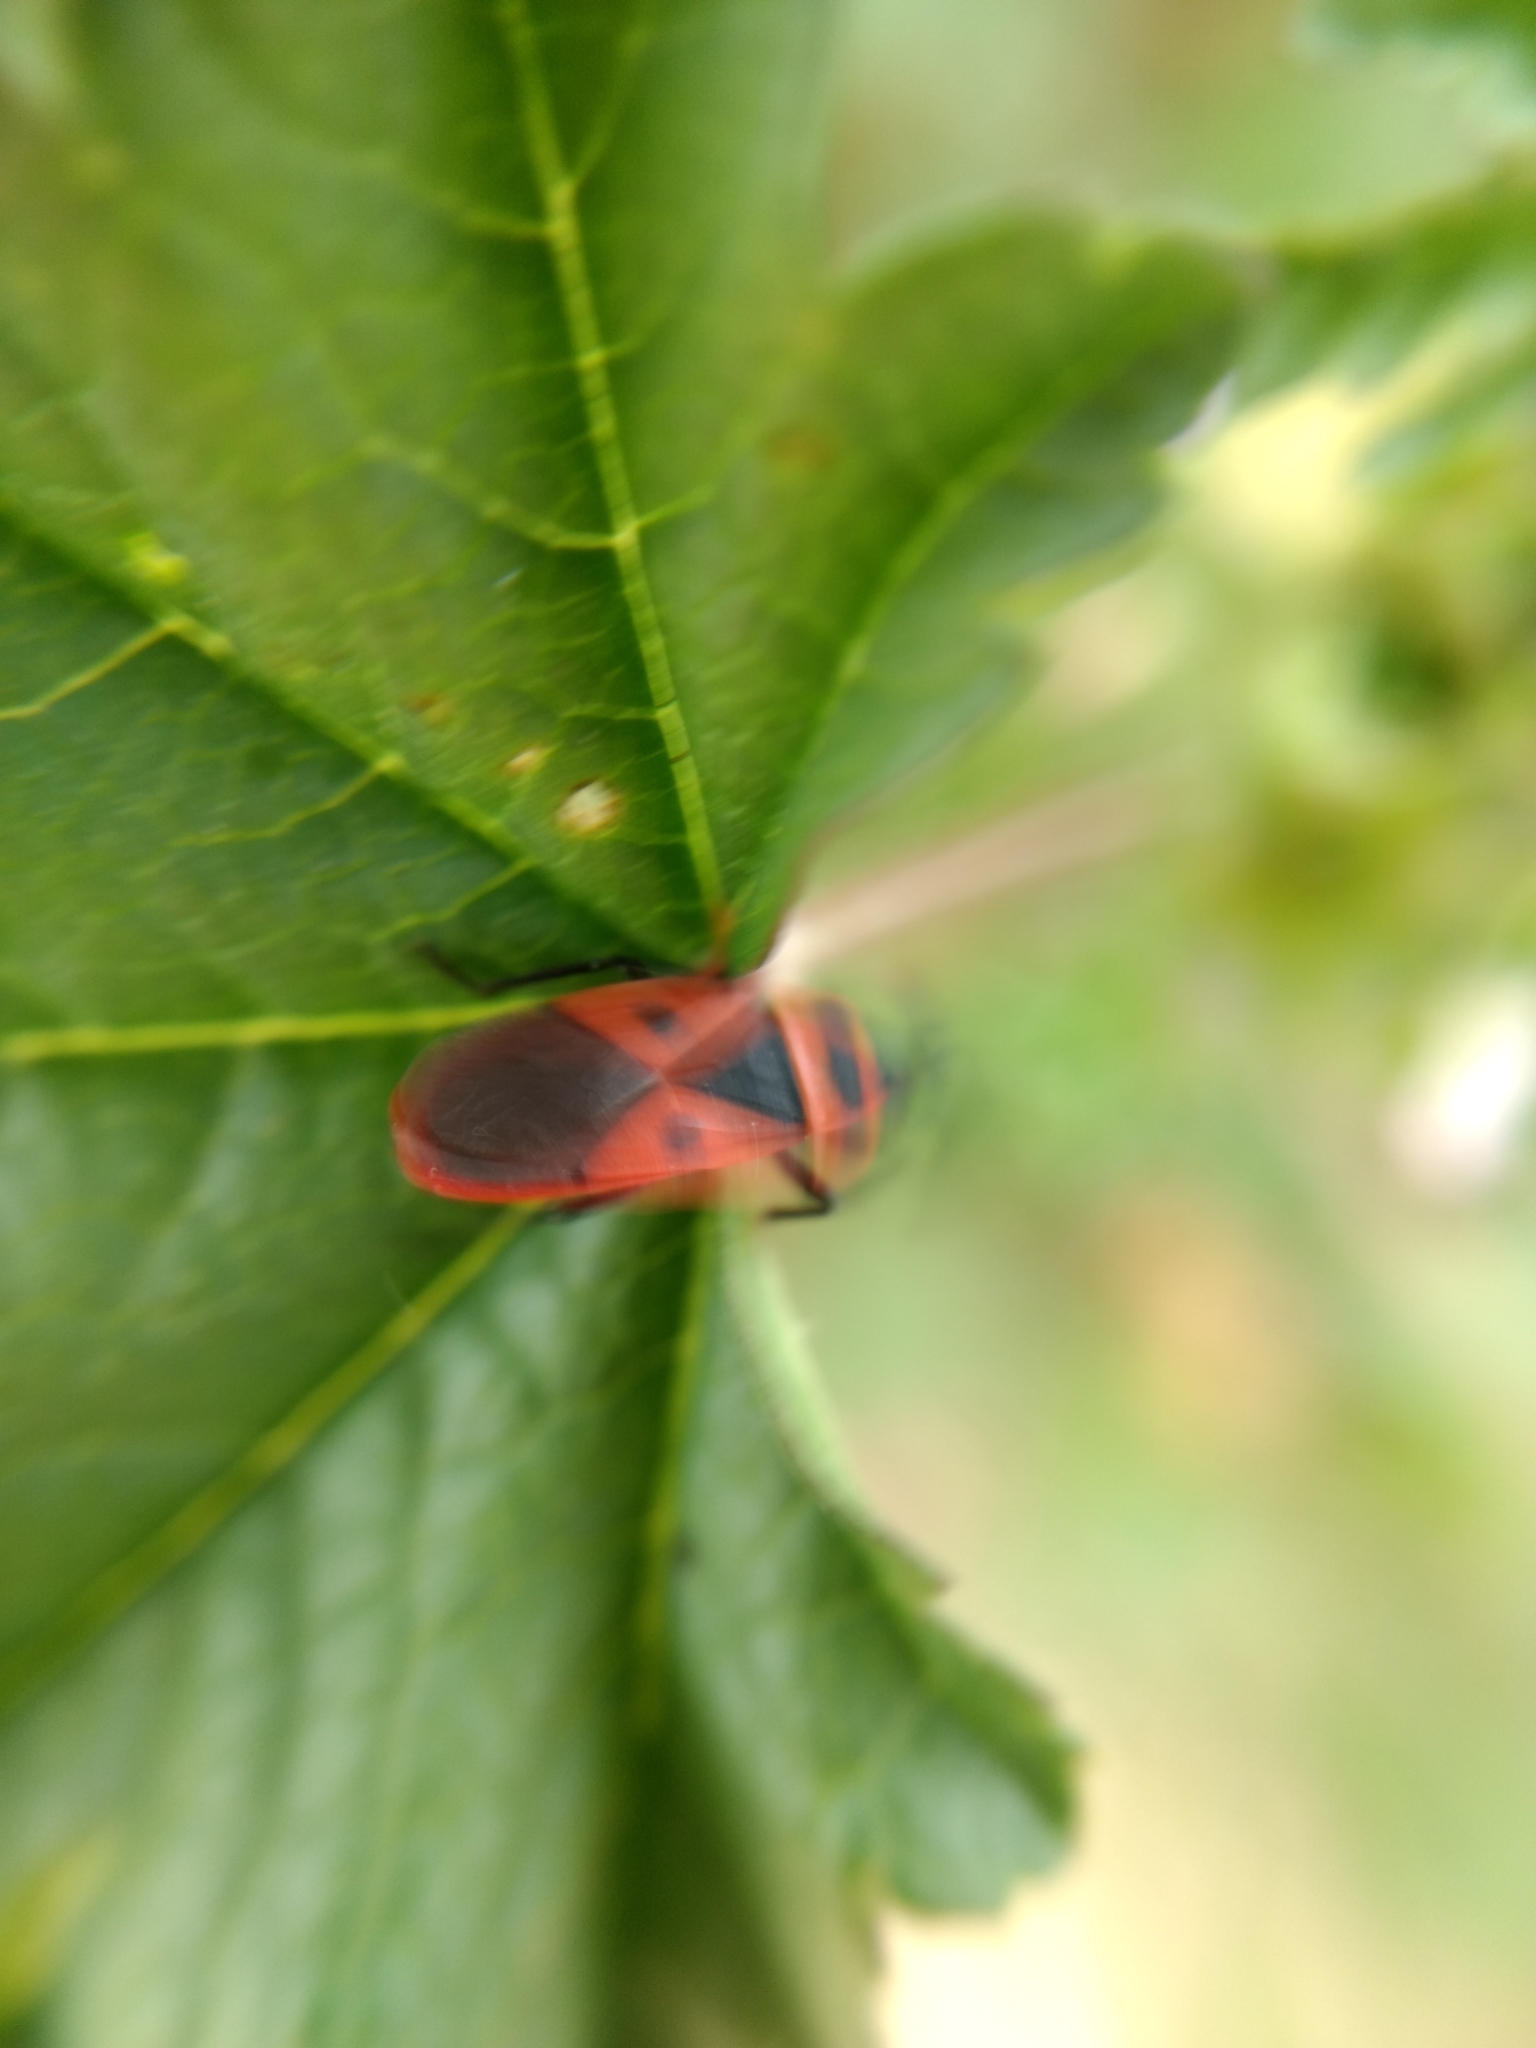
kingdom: Animalia
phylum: Arthropoda
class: Insecta
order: Hemiptera
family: Pyrrhocoridae
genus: Scantius
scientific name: Scantius aegyptius
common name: Red bug
